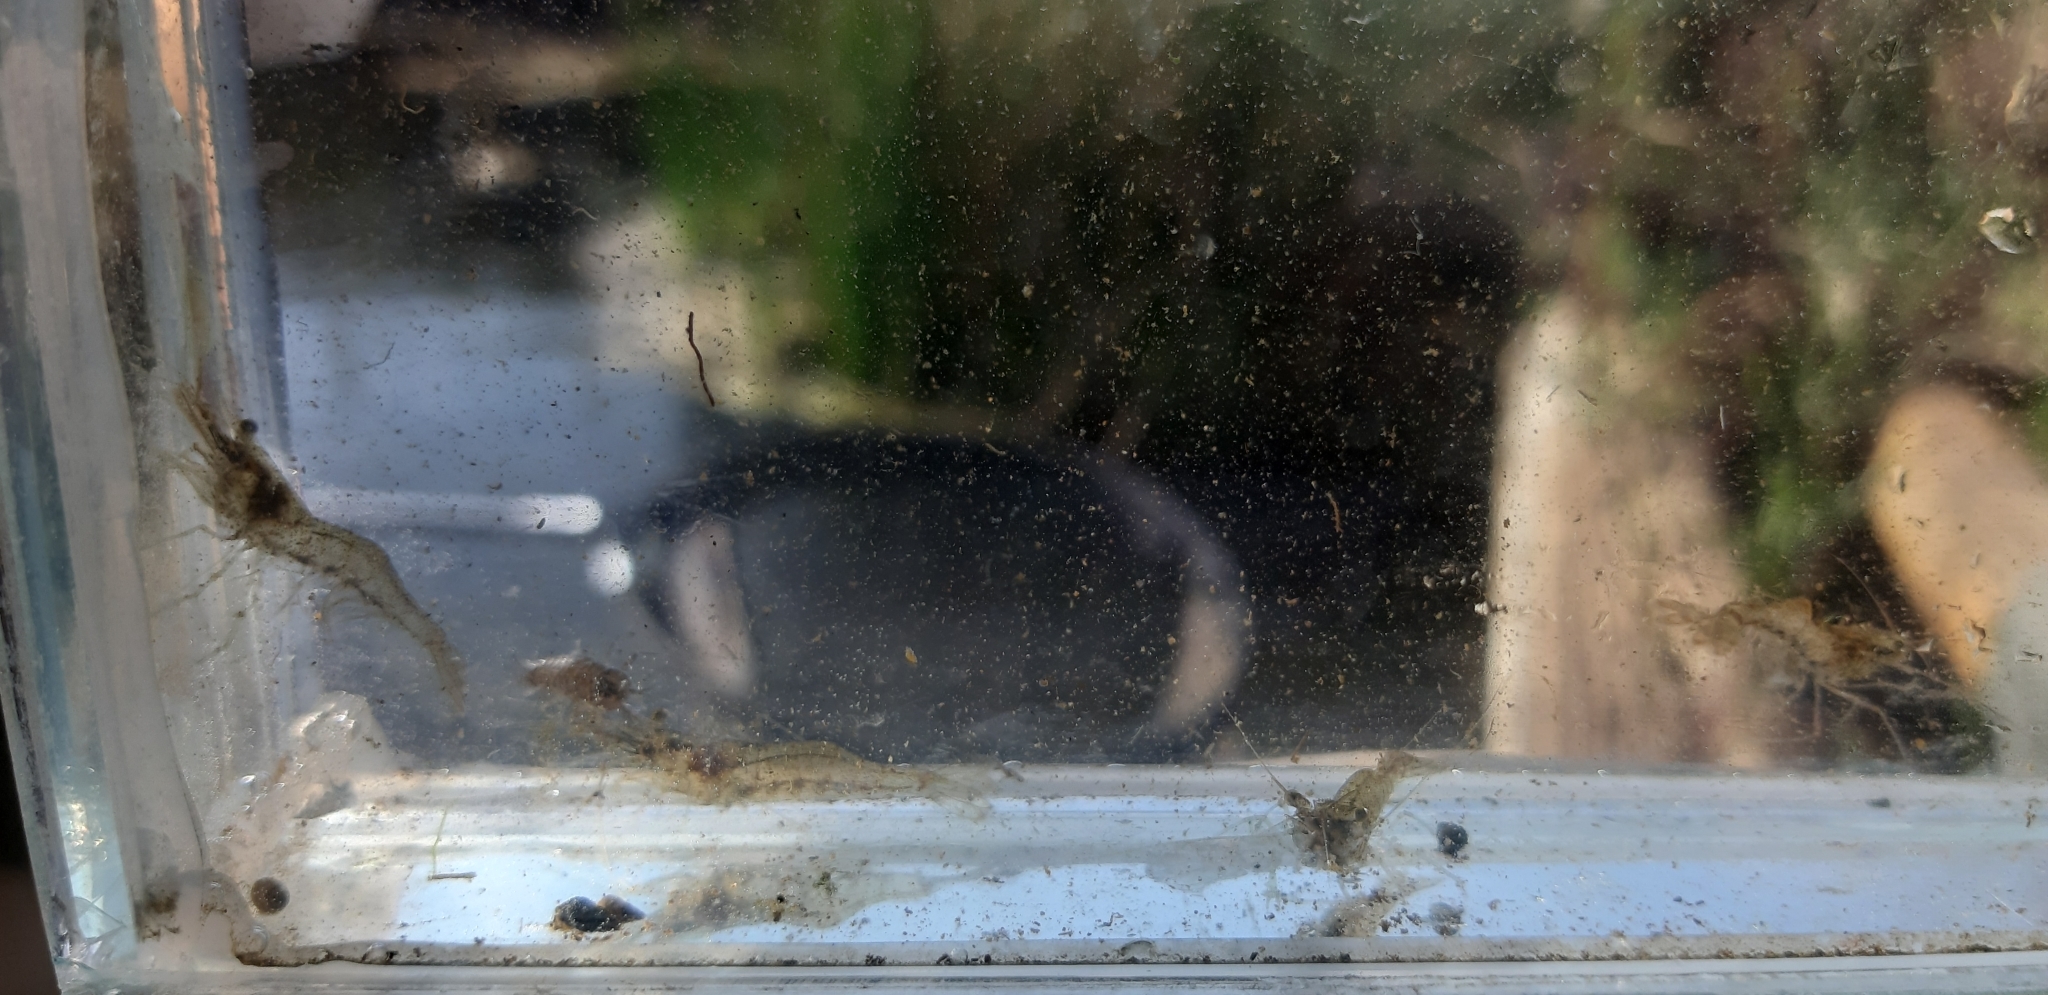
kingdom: Animalia
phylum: Arthropoda
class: Malacostraca
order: Decapoda
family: Palaemonidae
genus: Palaemon
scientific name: Palaemon antennarius
